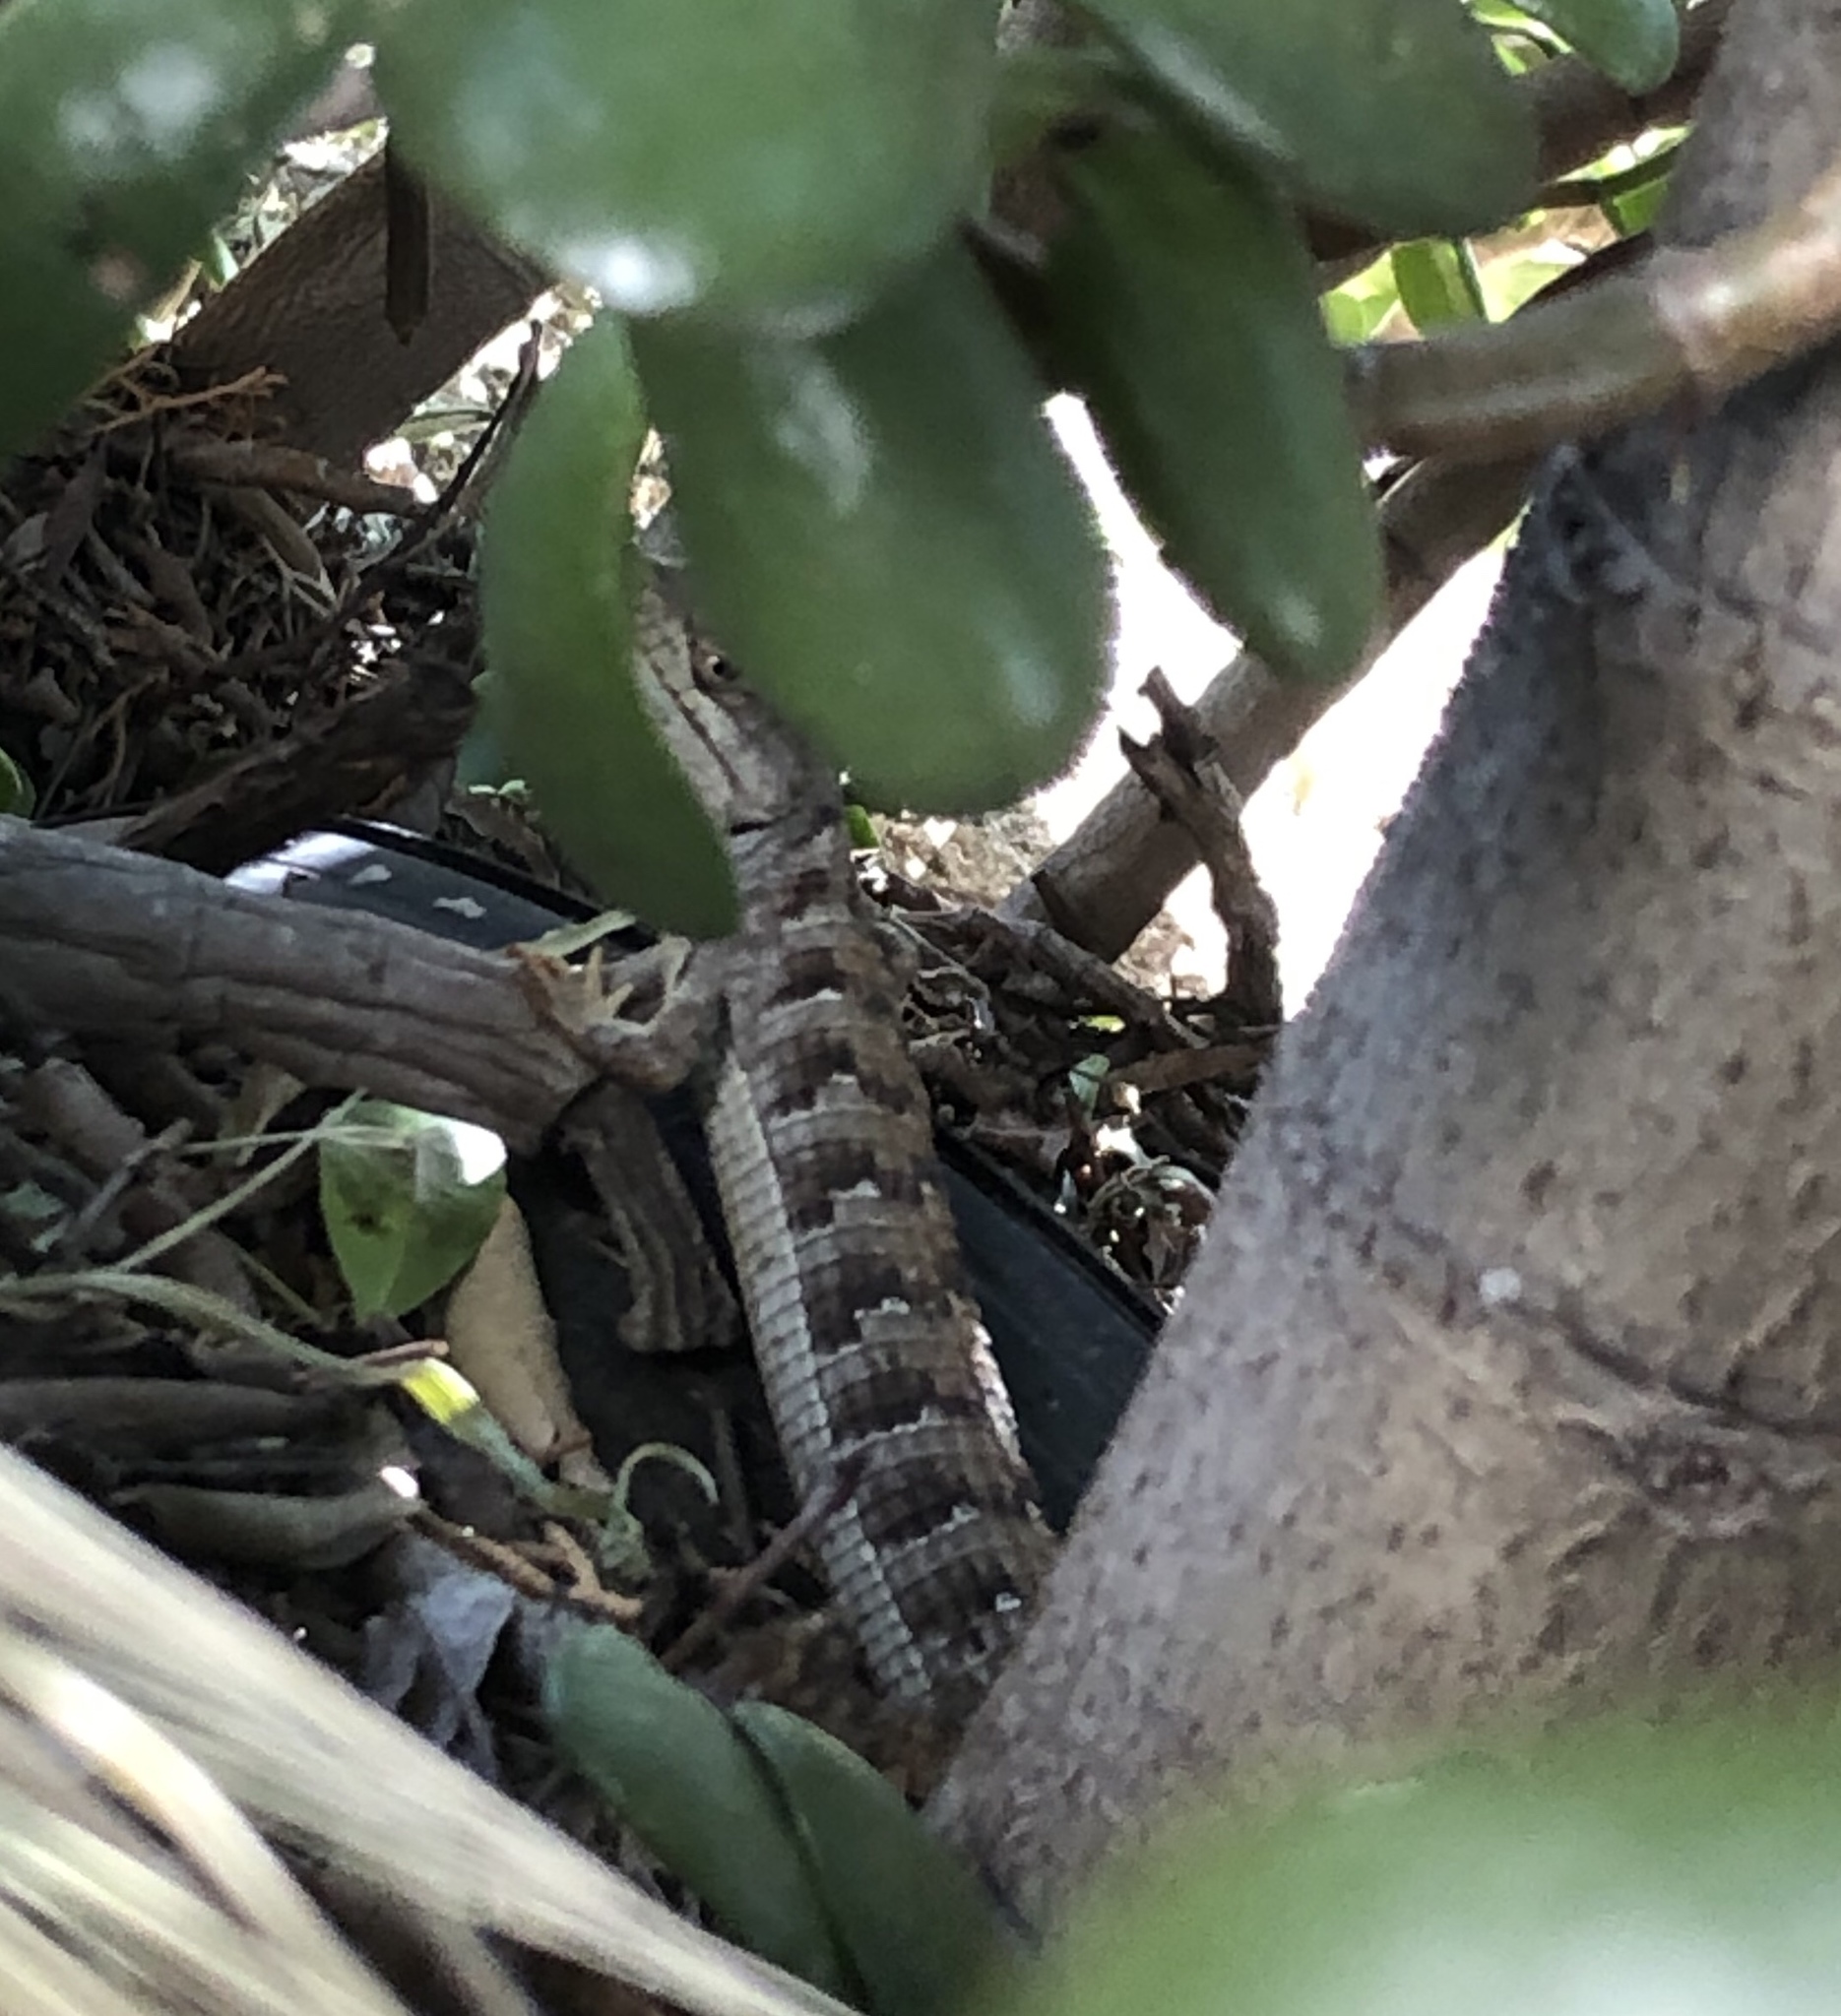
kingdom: Animalia
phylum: Chordata
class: Squamata
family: Anguidae
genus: Elgaria
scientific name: Elgaria multicarinata
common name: Southern alligator lizard
